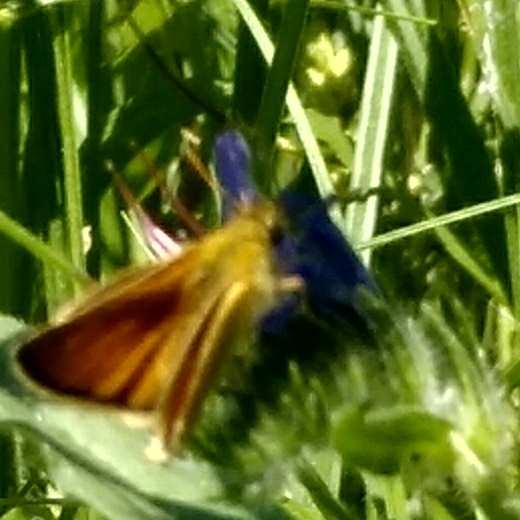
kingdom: Animalia
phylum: Arthropoda
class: Insecta
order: Lepidoptera
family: Hesperiidae
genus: Thymelicus
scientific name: Thymelicus lineola
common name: Essex skipper
